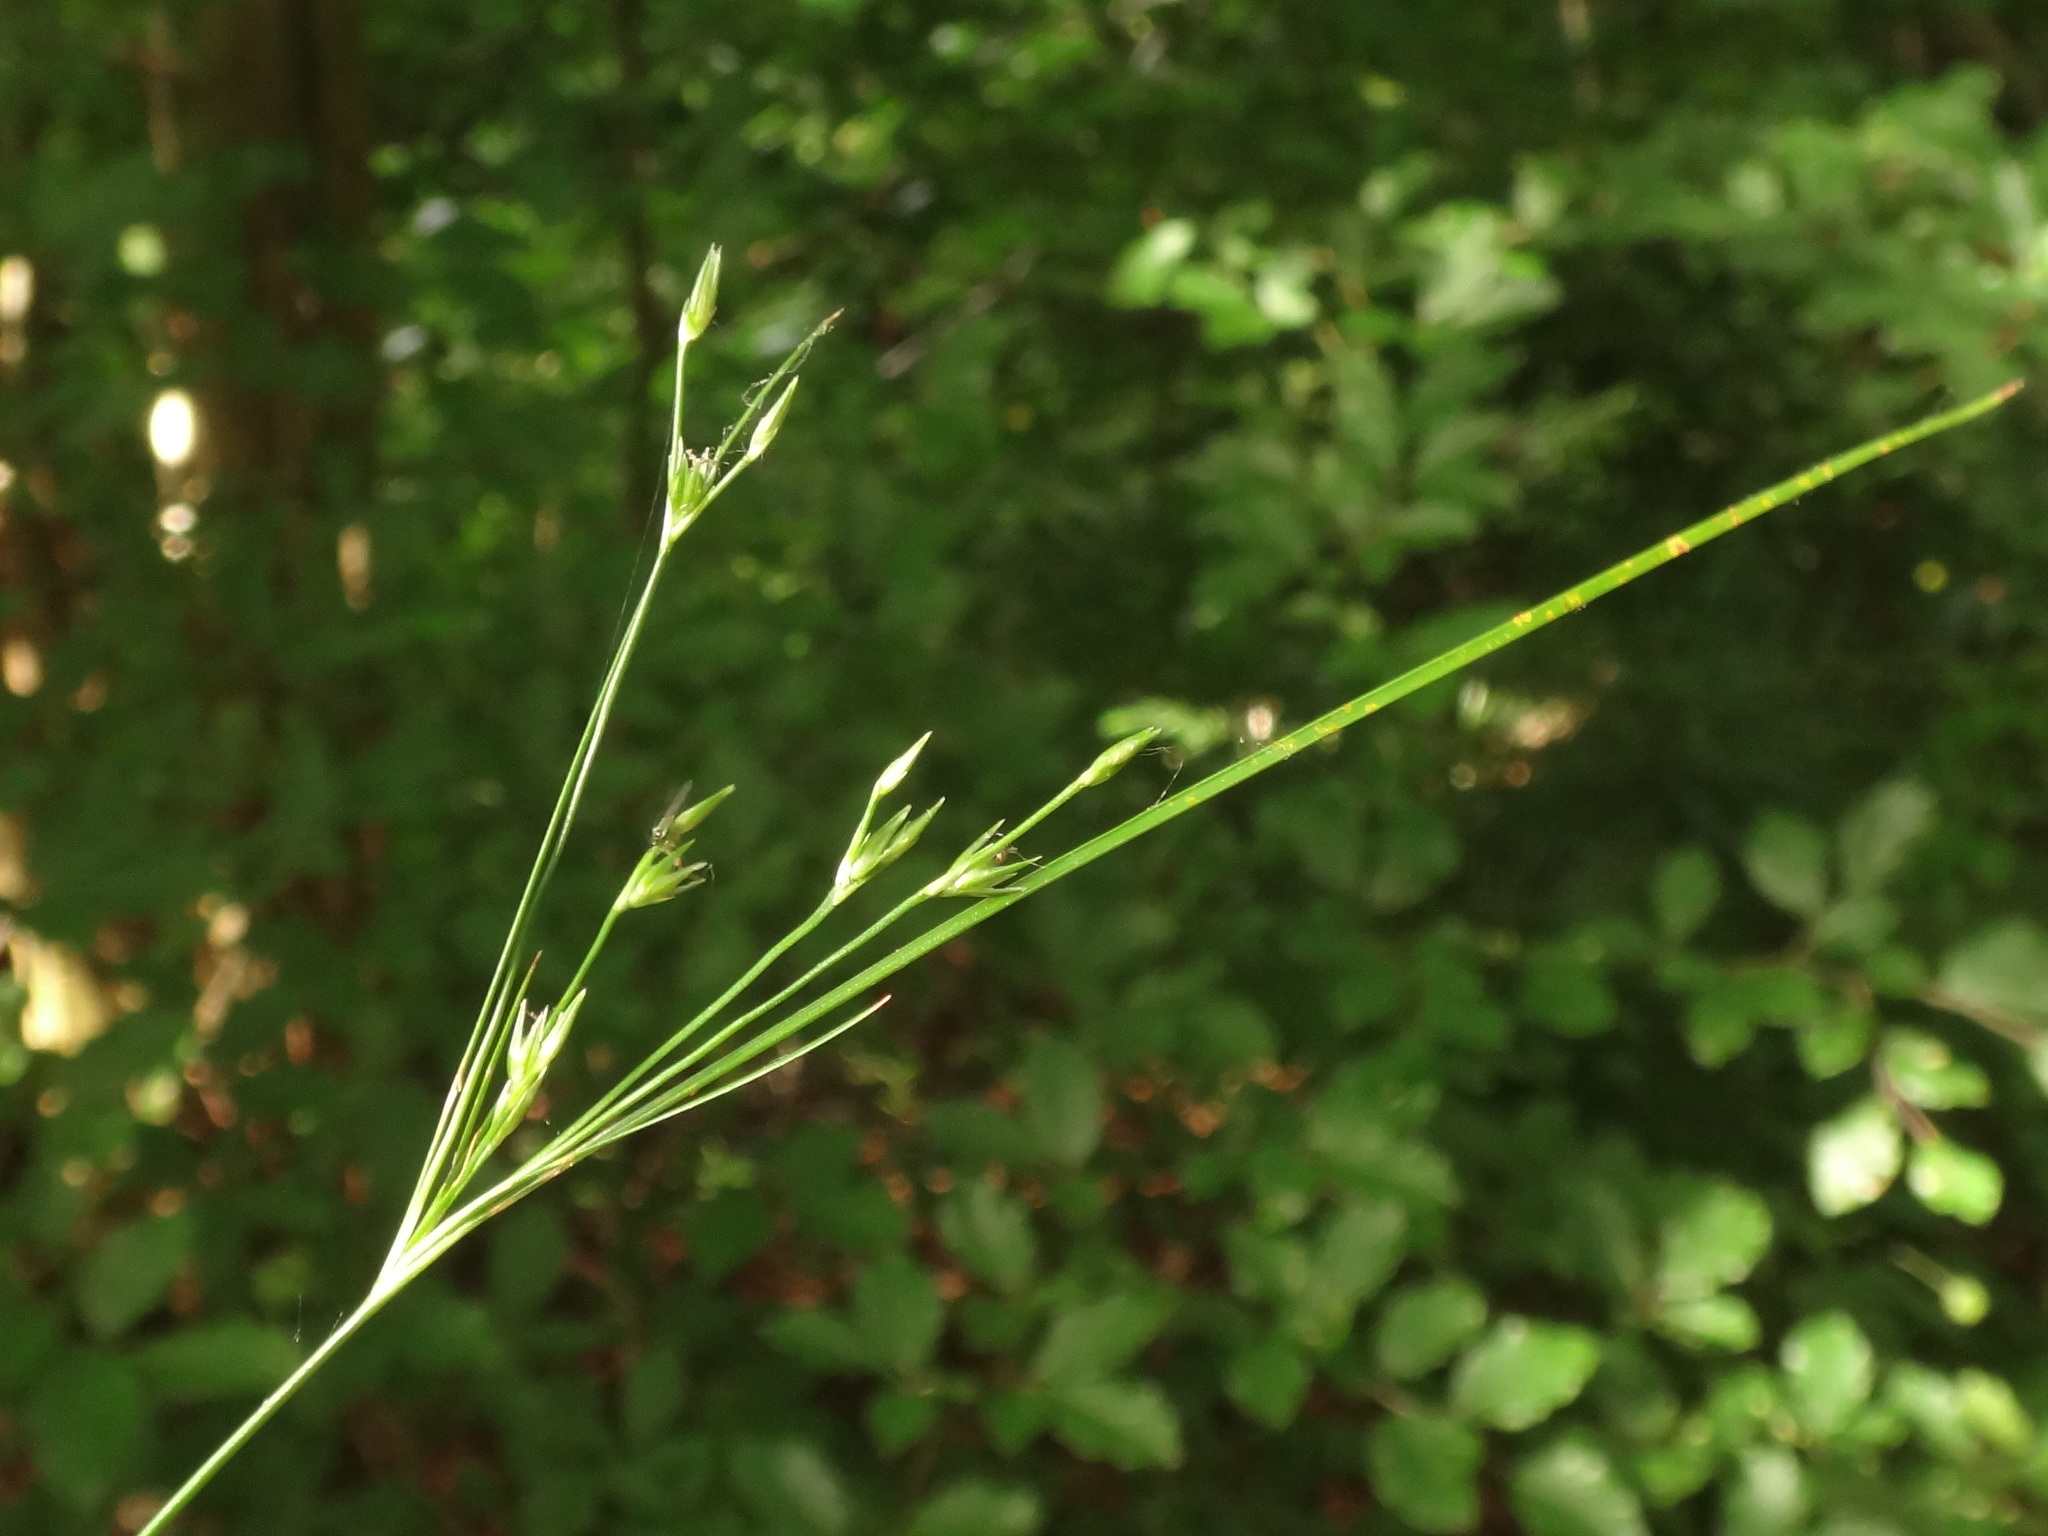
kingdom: Plantae
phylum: Tracheophyta
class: Liliopsida
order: Poales
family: Juncaceae
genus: Juncus
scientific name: Juncus tenuis
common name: Slender rush
